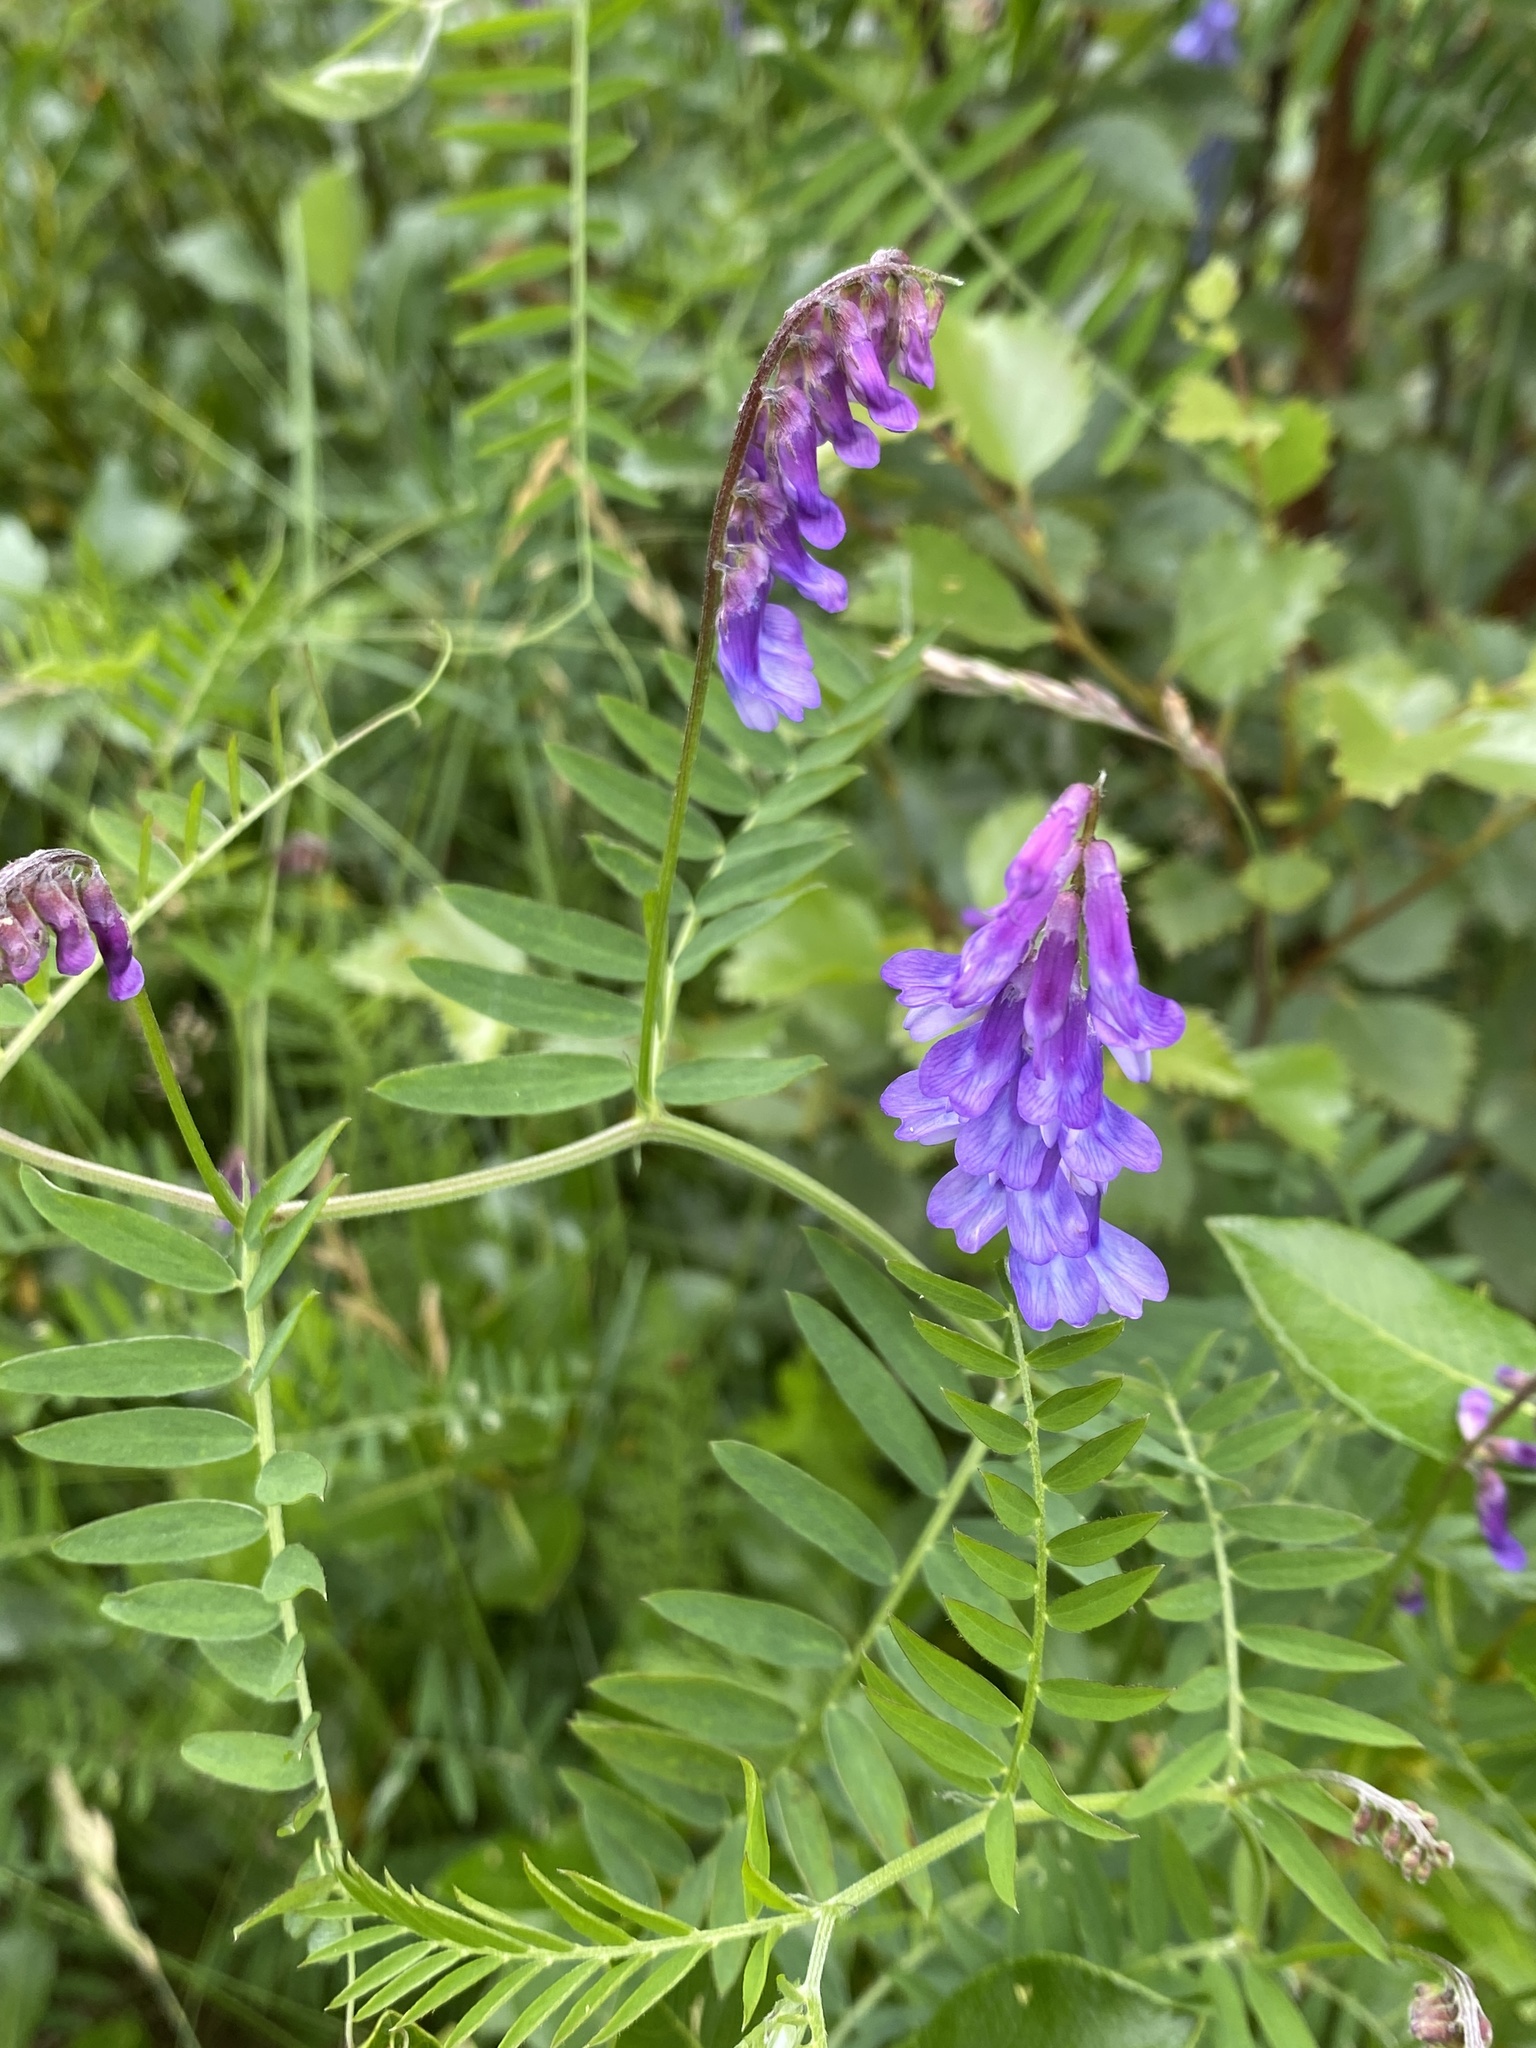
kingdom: Plantae
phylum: Tracheophyta
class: Magnoliopsida
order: Fabales
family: Fabaceae
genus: Vicia
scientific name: Vicia cracca
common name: Bird vetch
